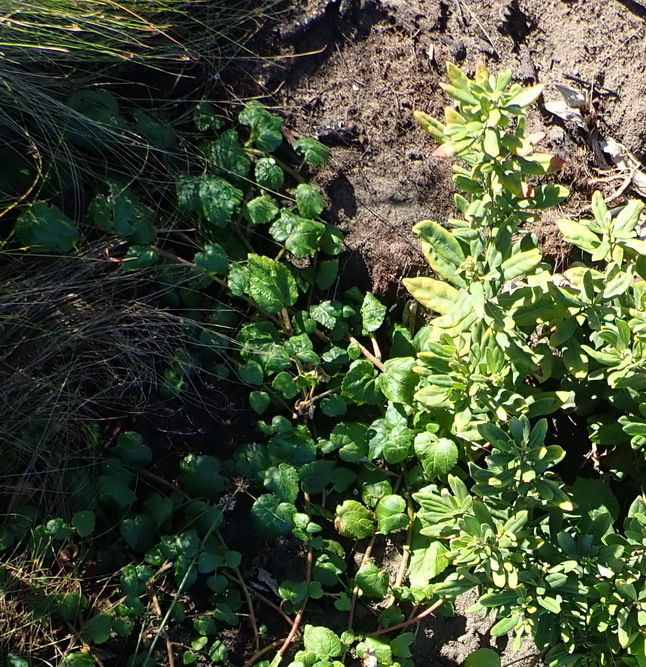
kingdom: Plantae
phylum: Tracheophyta
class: Magnoliopsida
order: Malpighiales
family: Euphorbiaceae
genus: Bernardia
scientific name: Bernardia corensis
